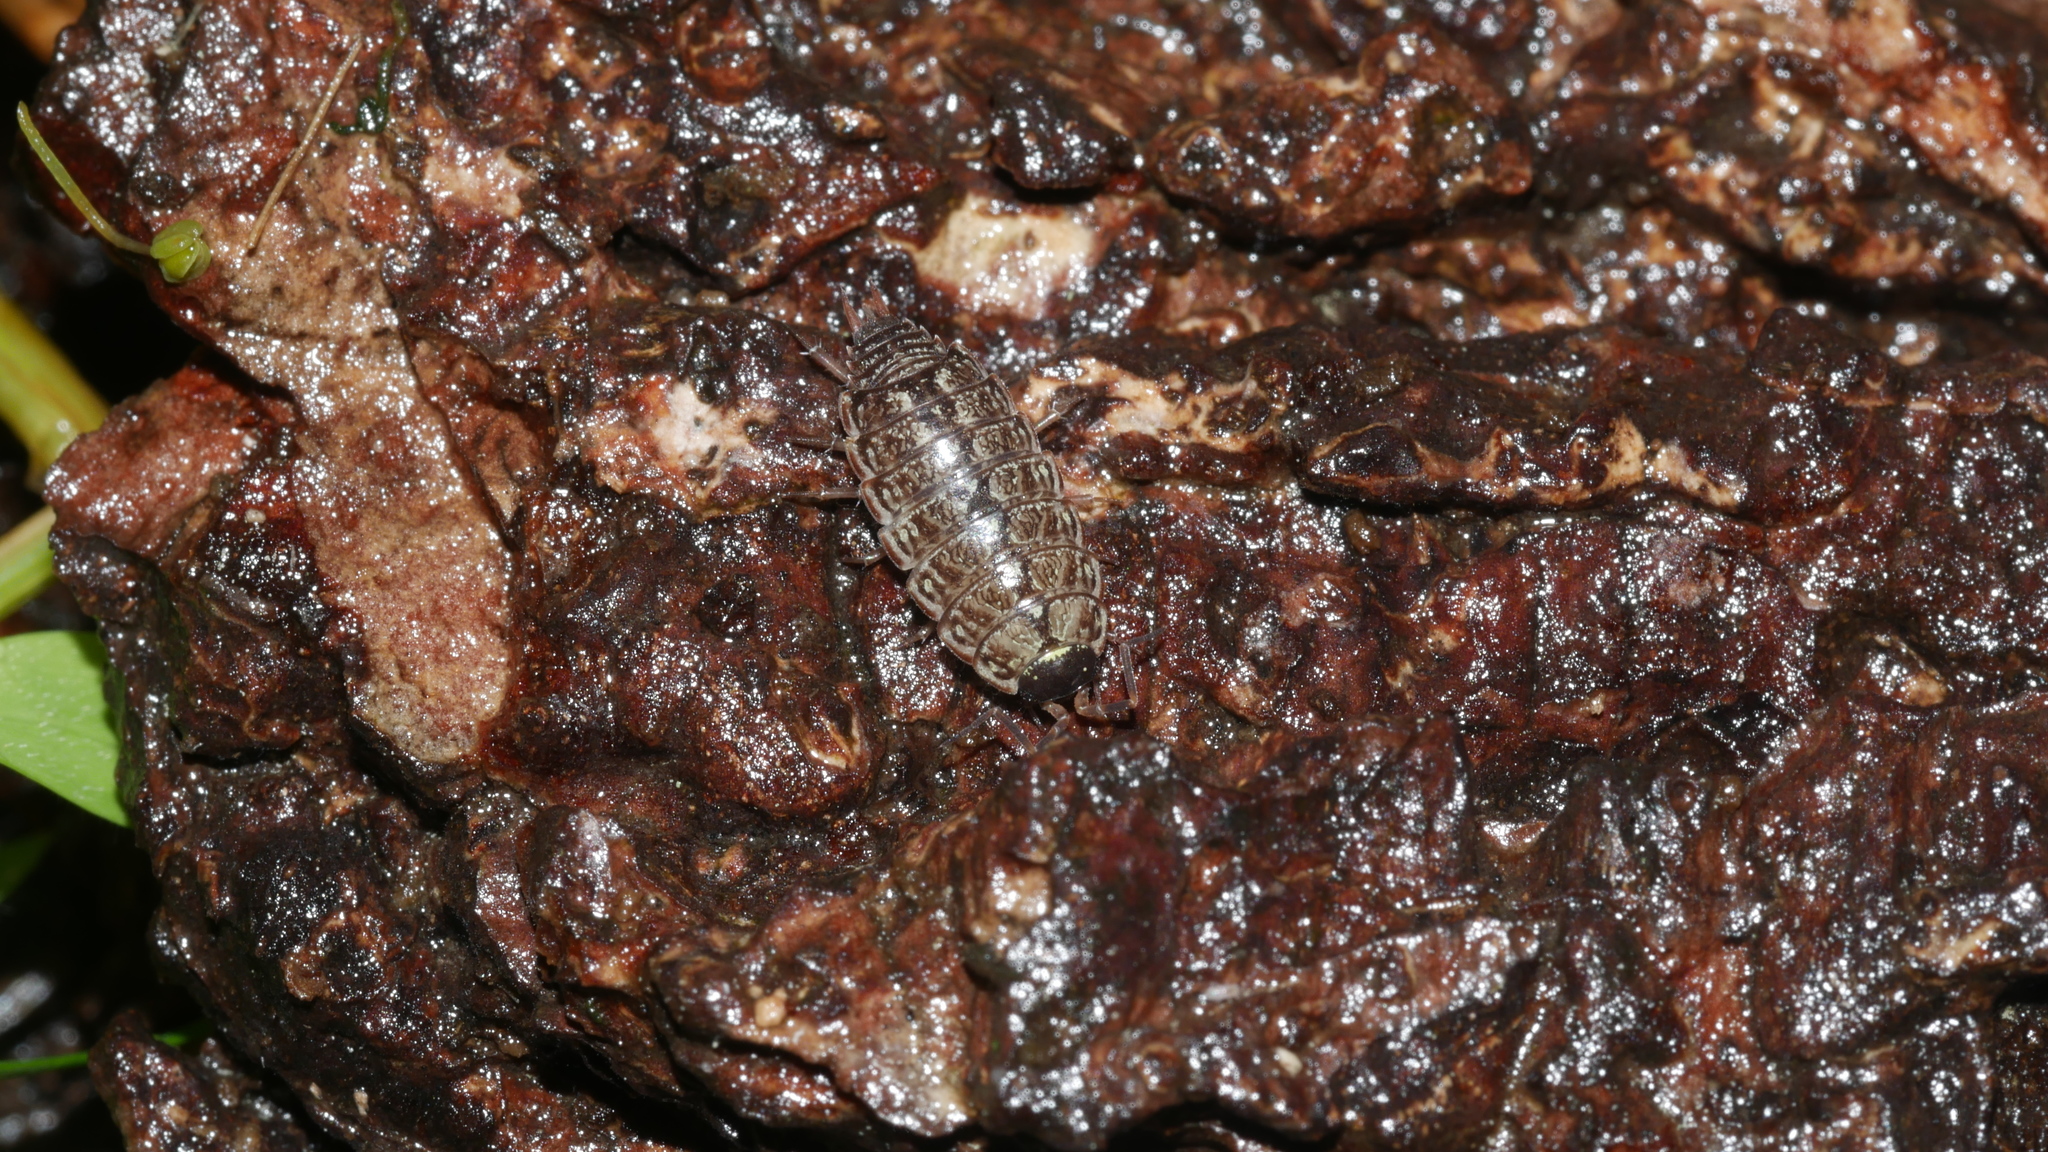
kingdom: Animalia
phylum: Arthropoda
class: Malacostraca
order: Isopoda
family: Philosciidae
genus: Philoscia
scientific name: Philoscia muscorum
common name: Common striped woodlouse
